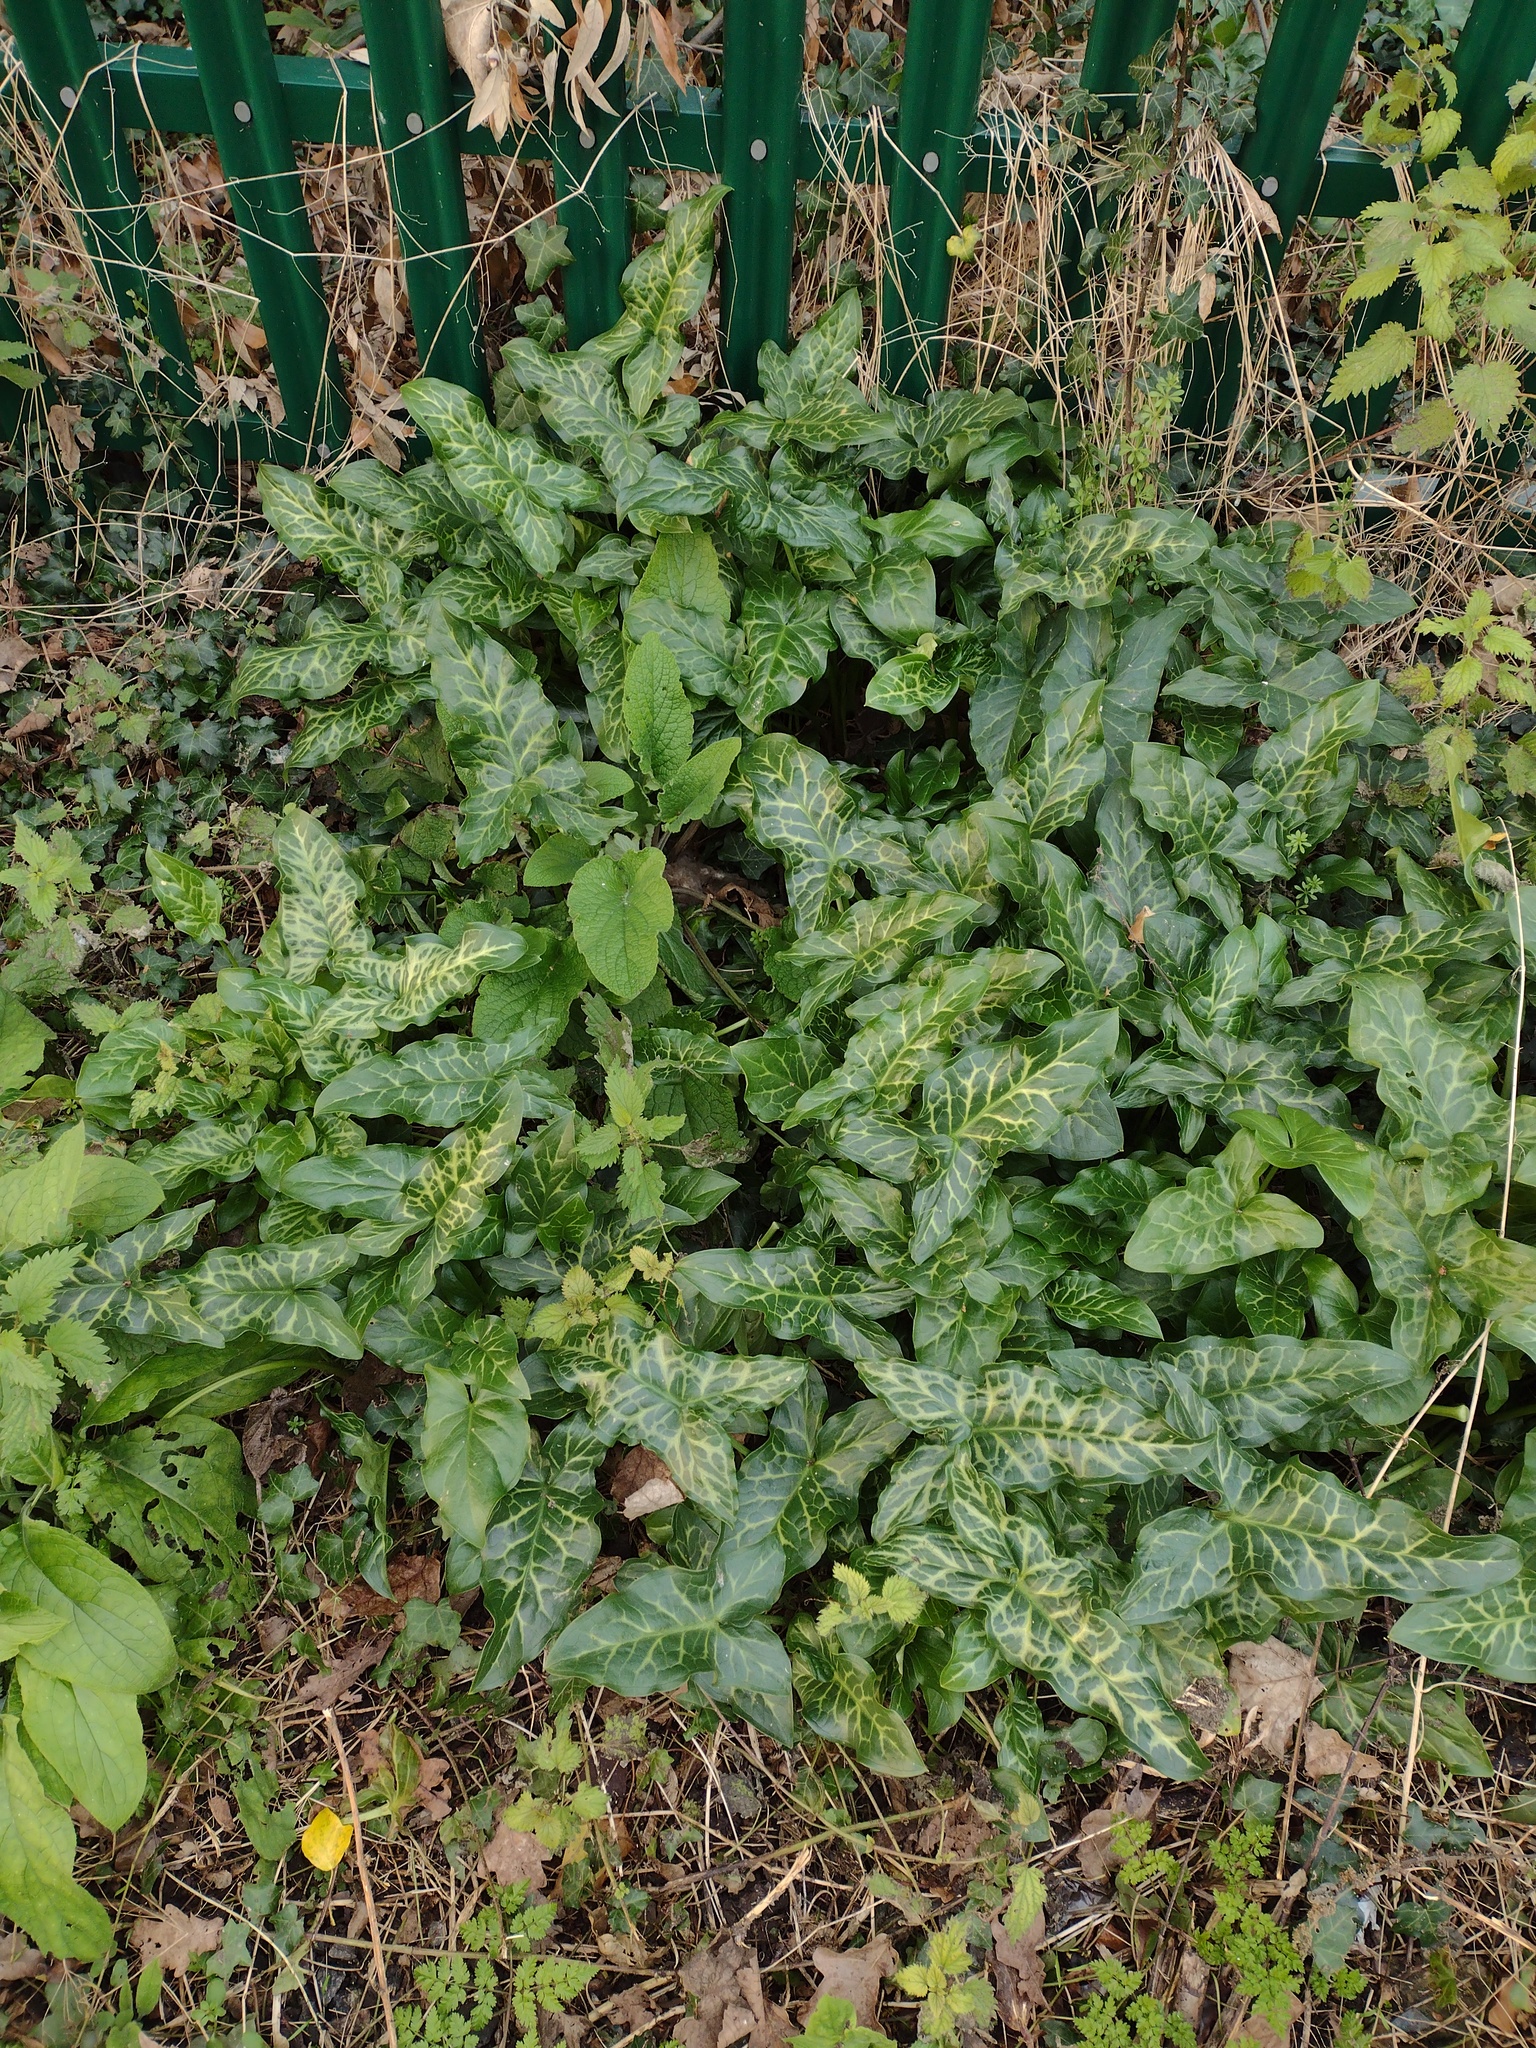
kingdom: Plantae
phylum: Tracheophyta
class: Liliopsida
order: Alismatales
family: Araceae
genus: Arum
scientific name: Arum italicum
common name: Italian lords-and-ladies
